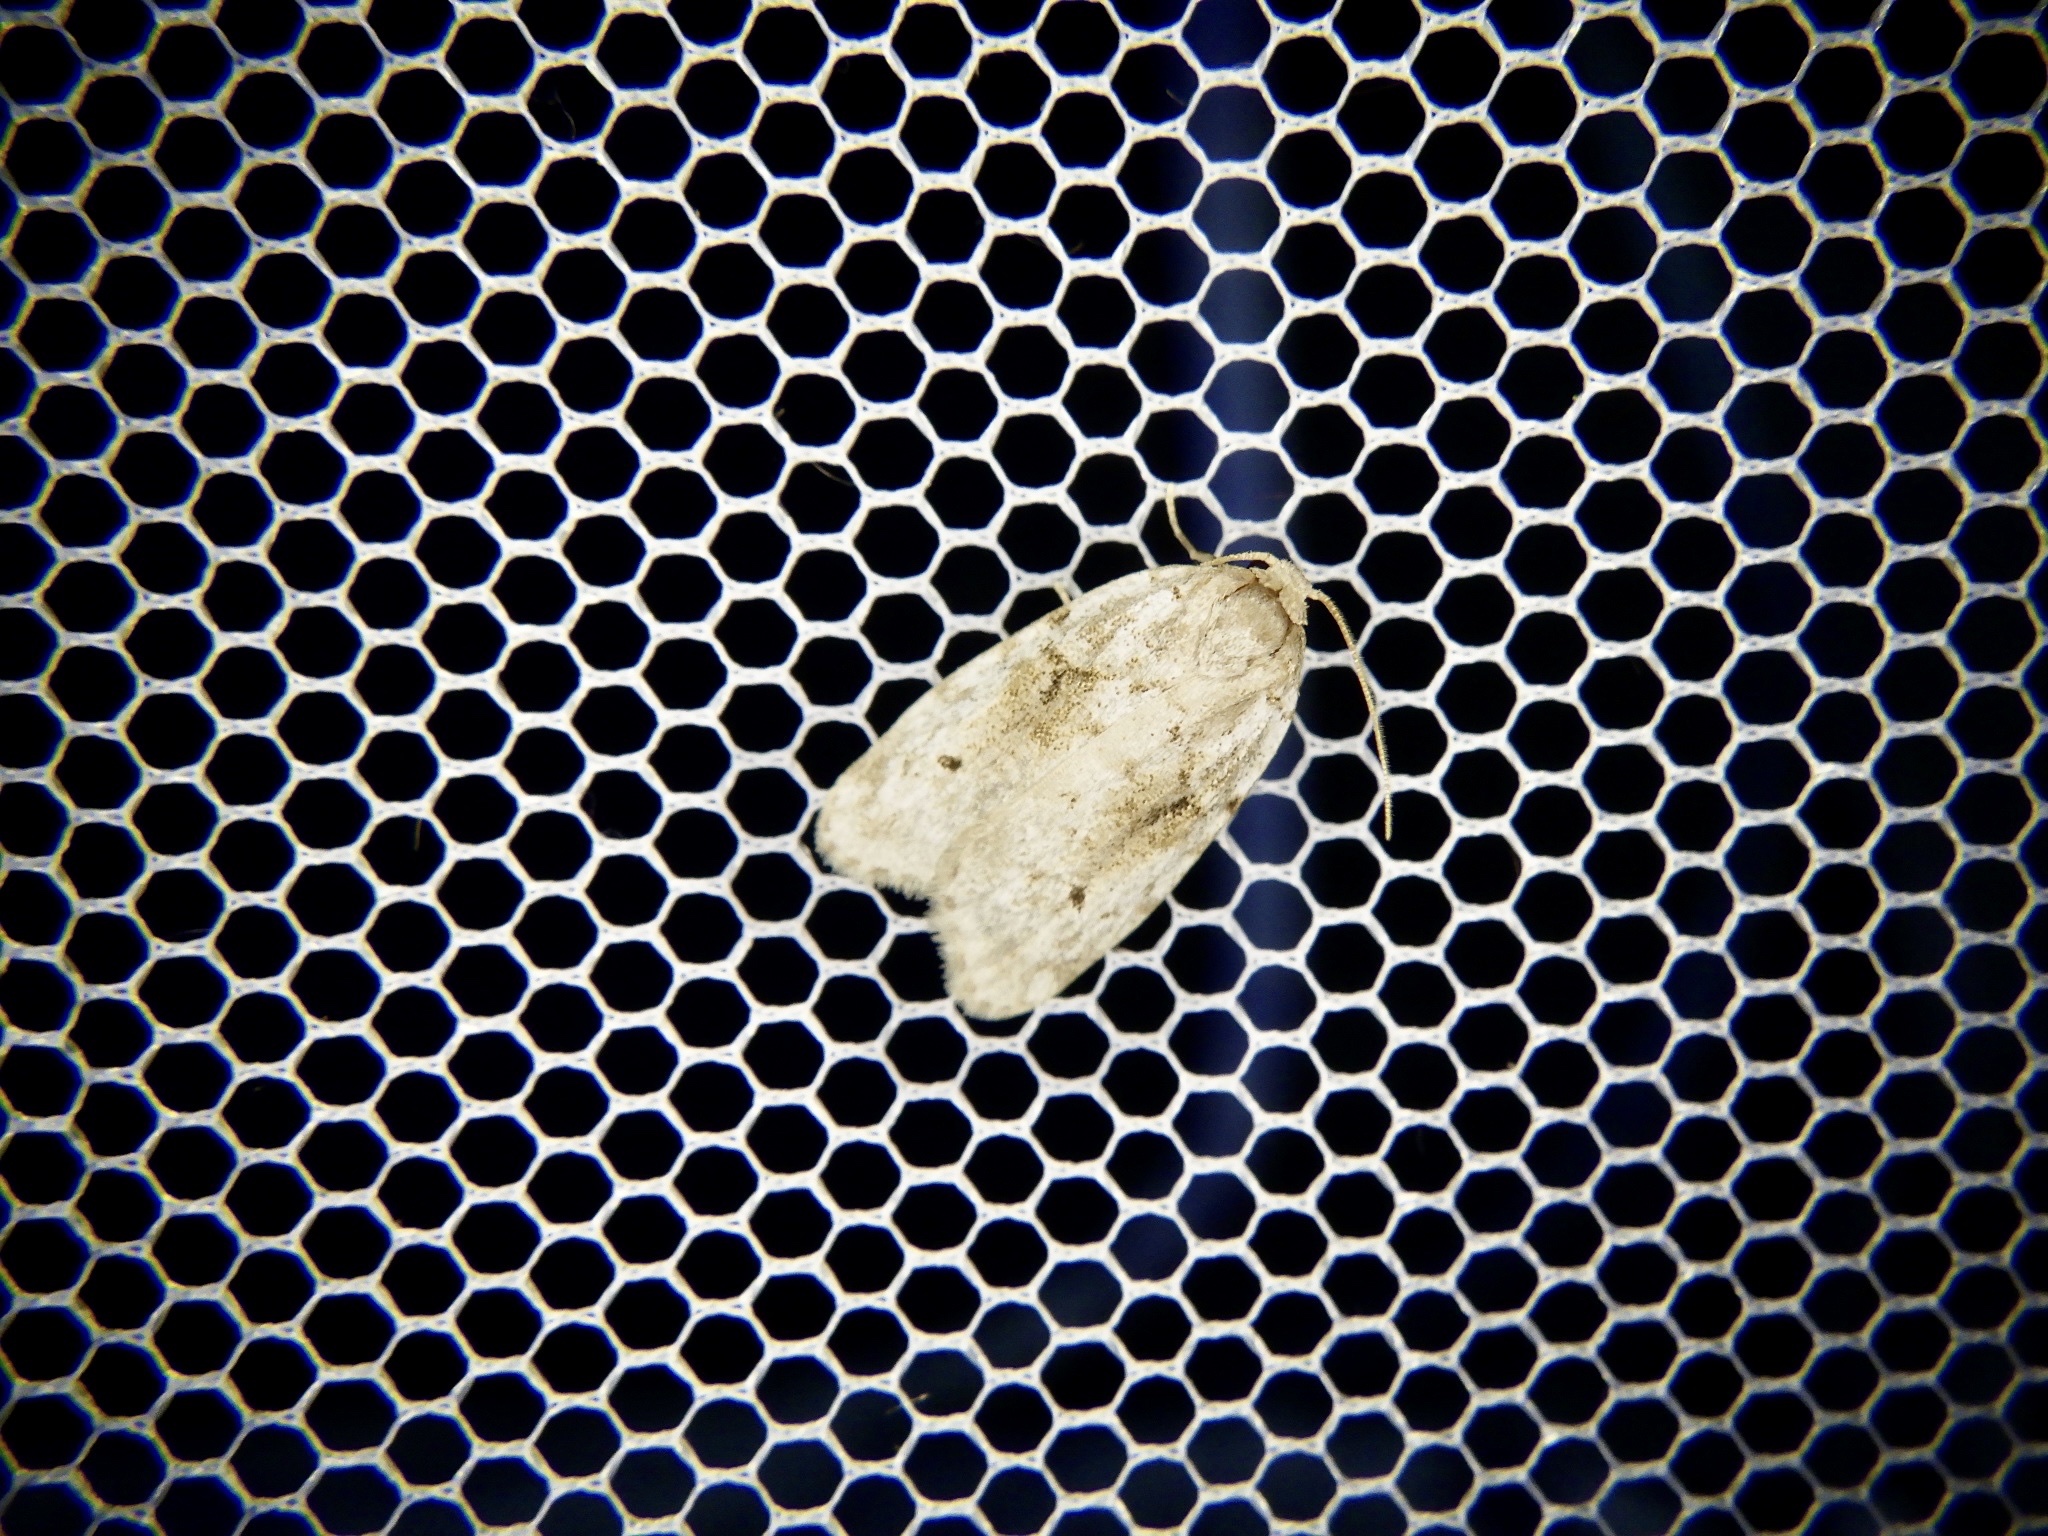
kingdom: Animalia
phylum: Arthropoda
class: Insecta
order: Lepidoptera
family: Erebidae
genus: Siccia
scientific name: Siccia obscura
